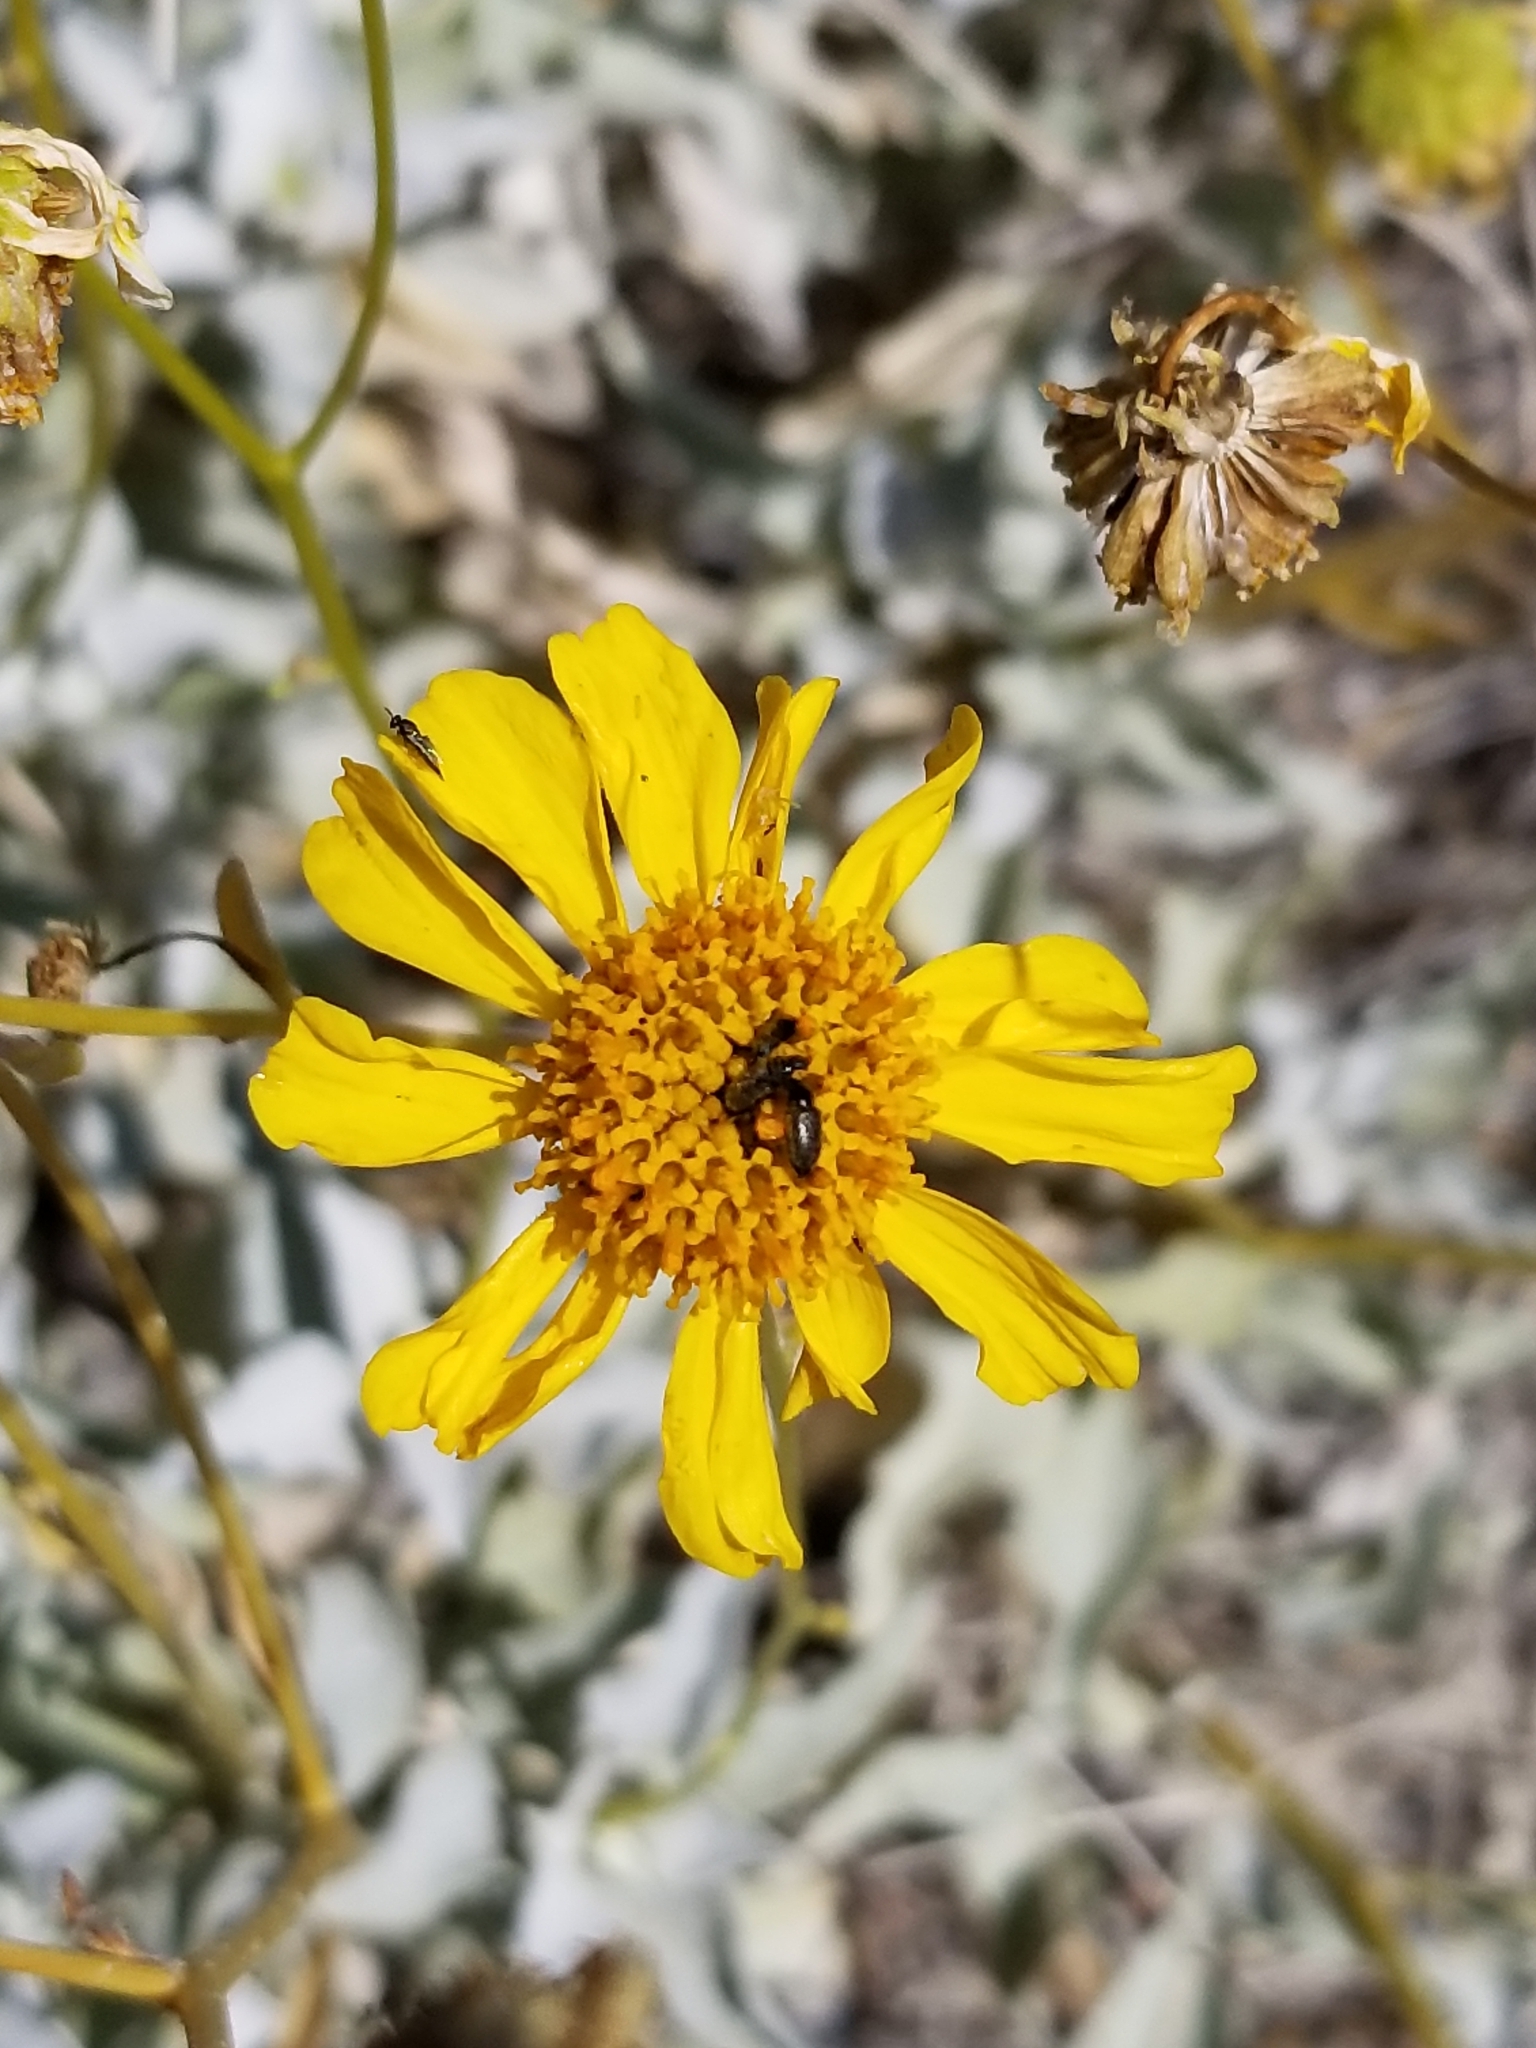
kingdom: Plantae
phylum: Tracheophyta
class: Magnoliopsida
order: Asterales
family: Asteraceae
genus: Encelia
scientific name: Encelia farinosa
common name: Brittlebush
